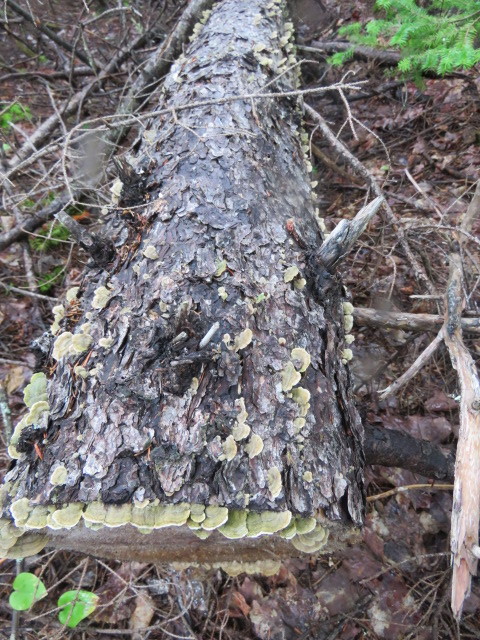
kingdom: Fungi
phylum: Basidiomycota
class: Agaricomycetes
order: Hymenochaetales
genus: Trichaptum
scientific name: Trichaptum abietinum
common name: Purplepore bracket
